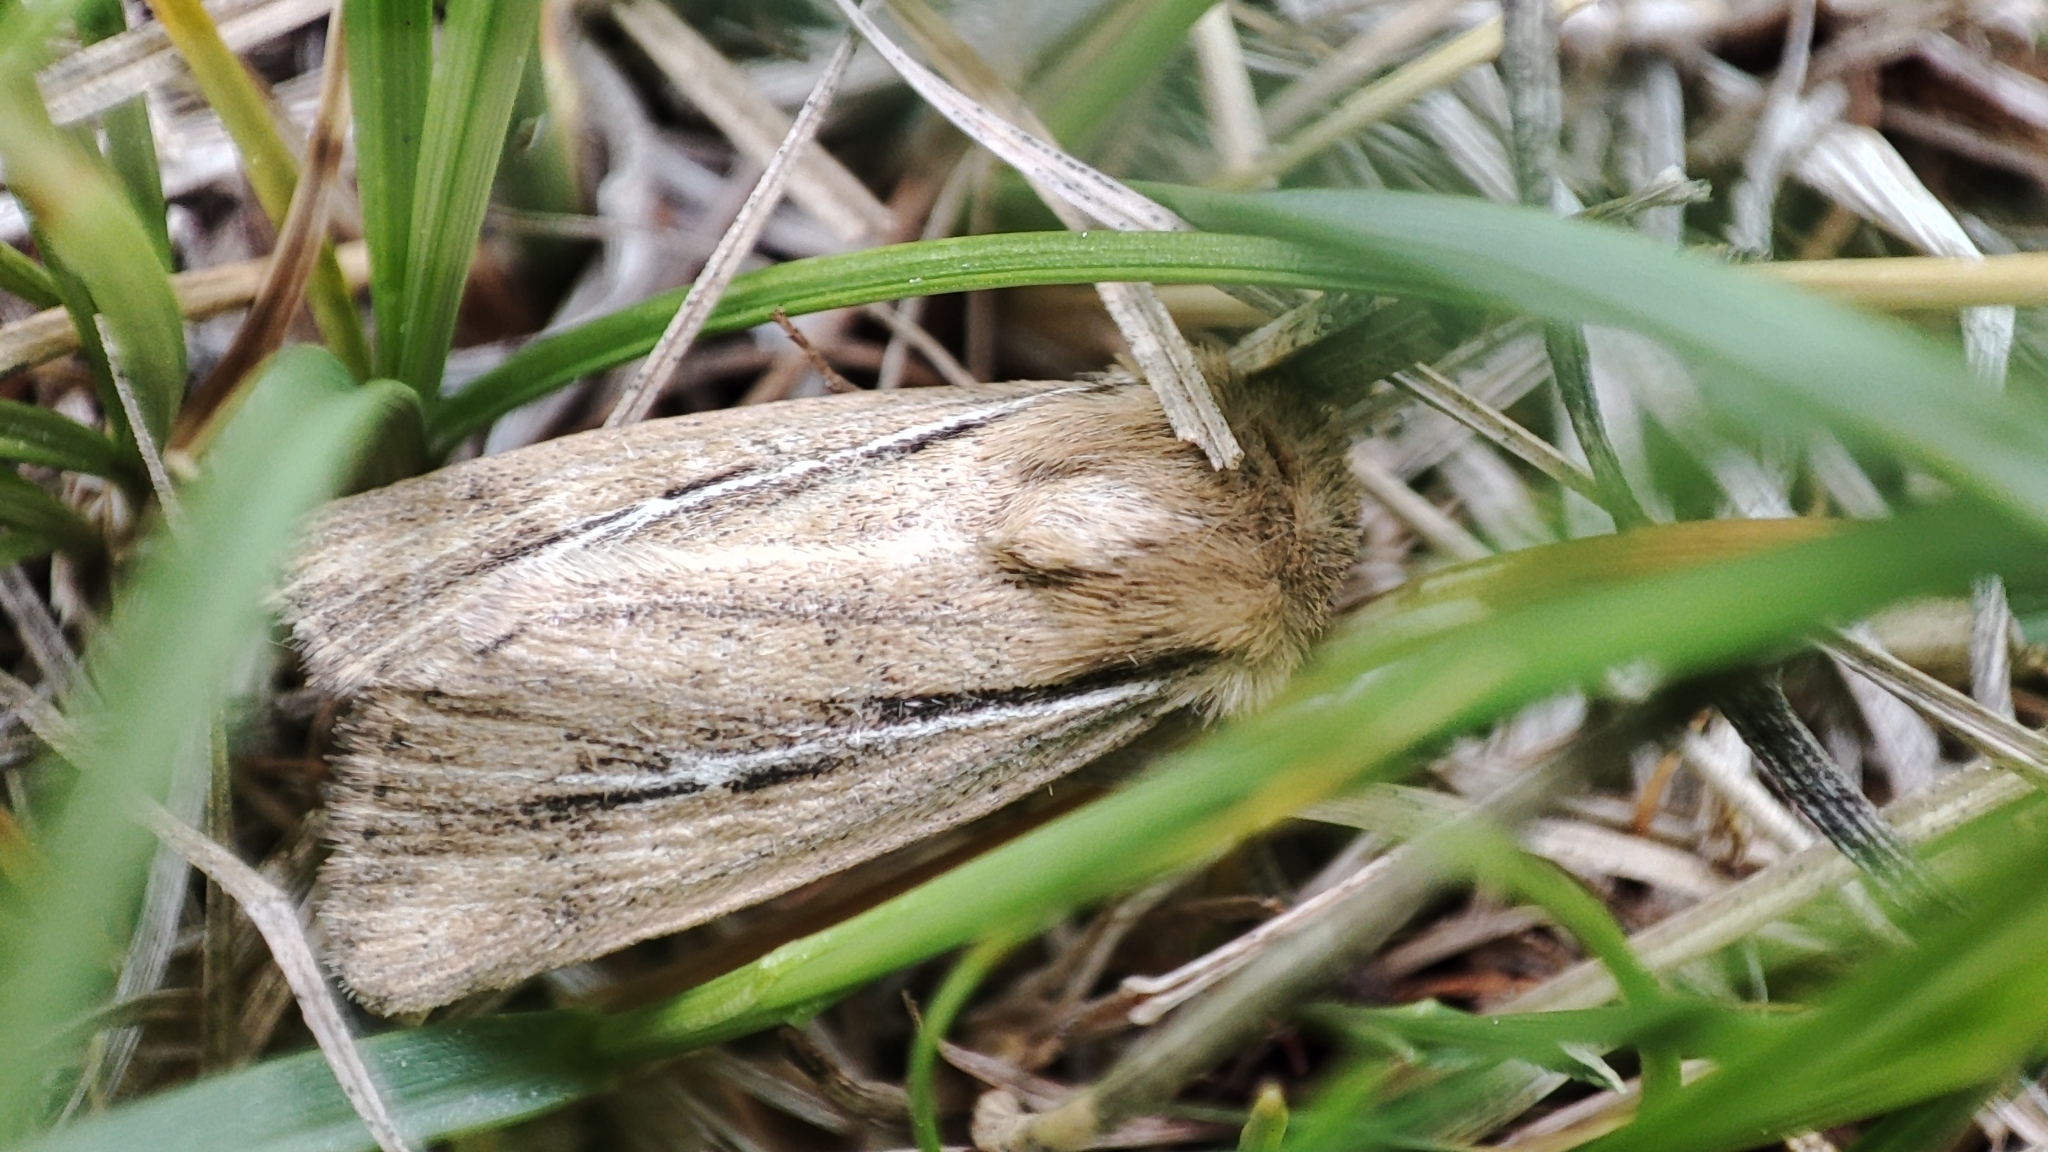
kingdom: Animalia
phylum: Arthropoda
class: Insecta
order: Lepidoptera
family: Noctuidae
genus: Mythimna
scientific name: Mythimna anderreggii
